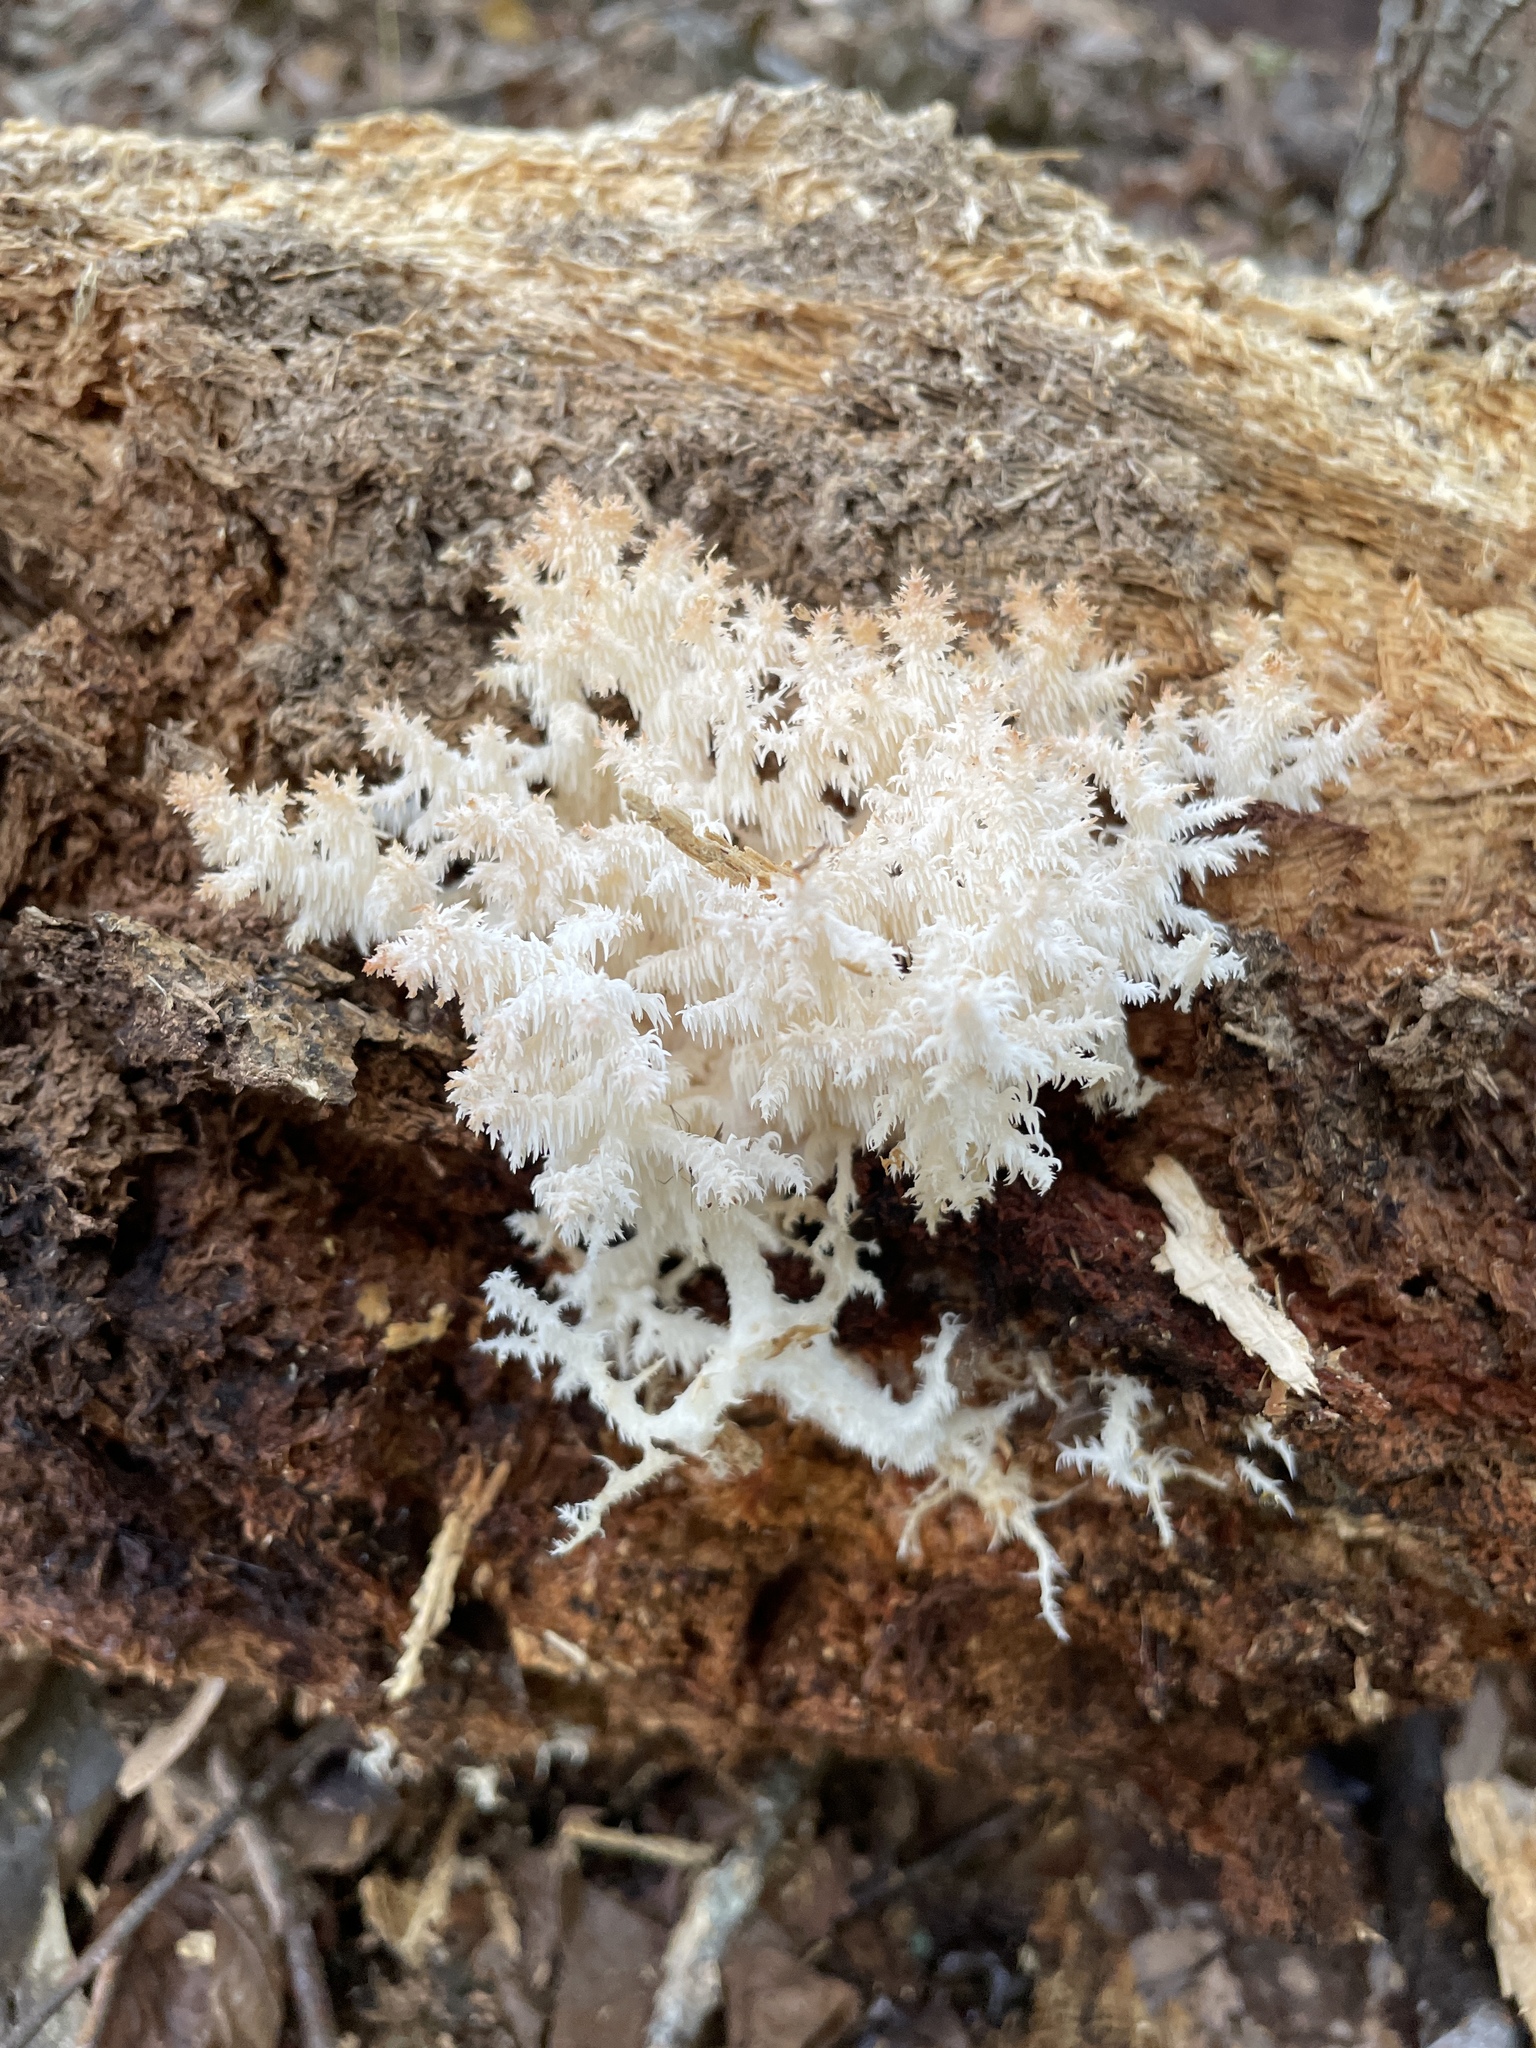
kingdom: Fungi
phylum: Basidiomycota
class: Agaricomycetes
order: Russulales
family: Hericiaceae
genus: Hericium
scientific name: Hericium coralloides
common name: Coral tooth
